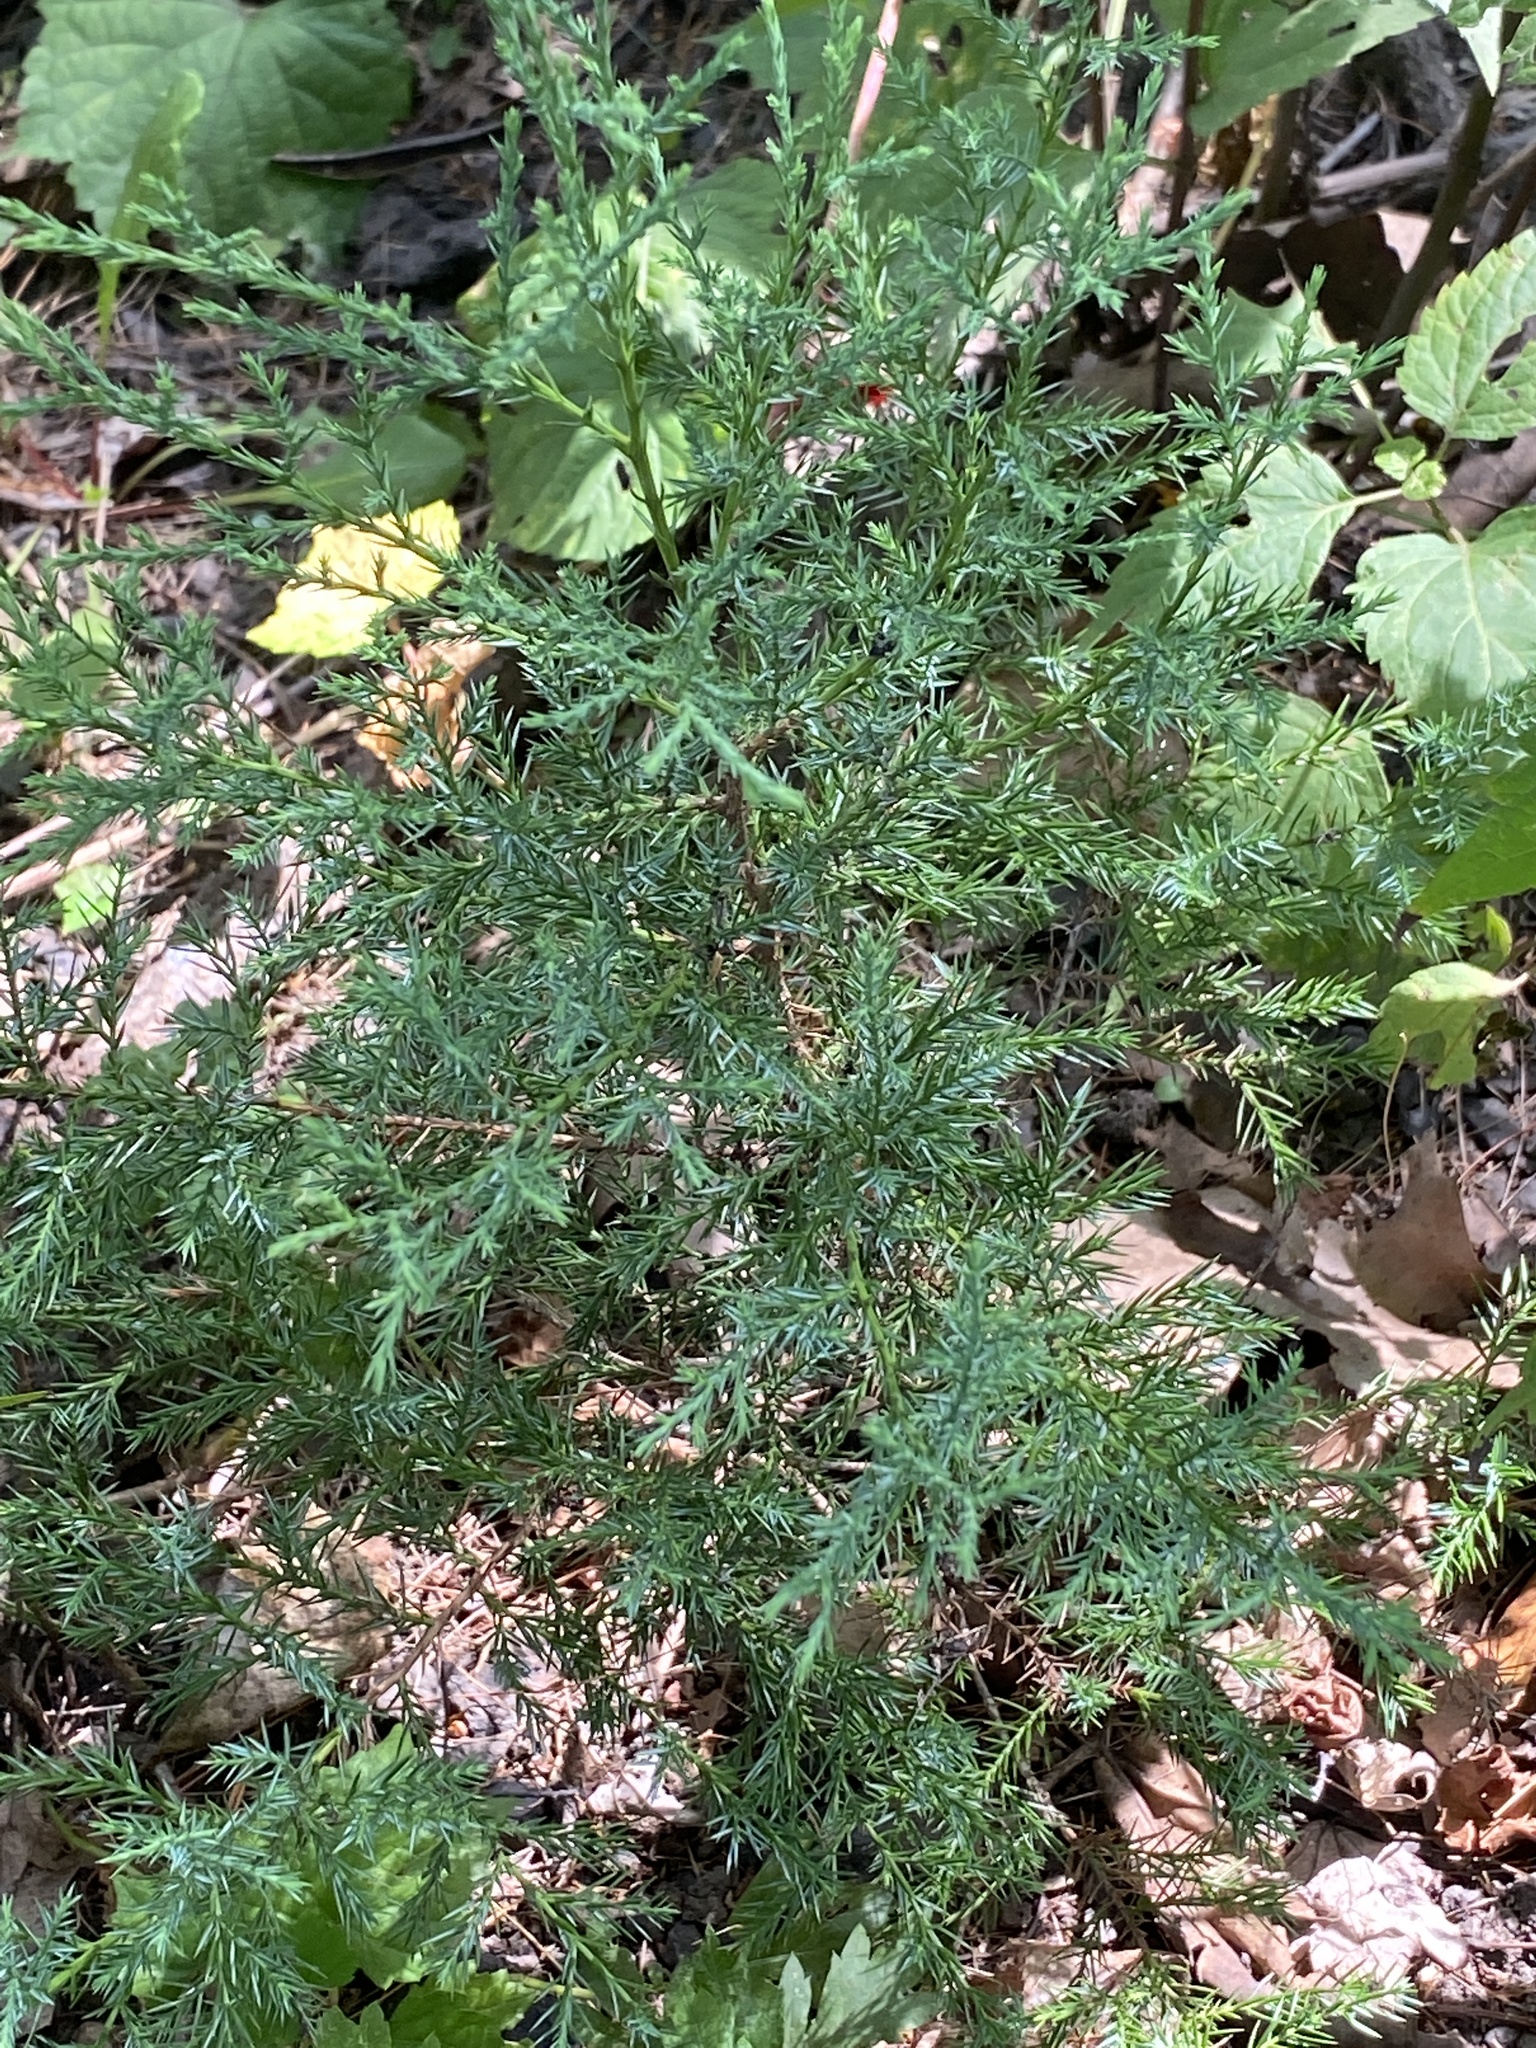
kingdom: Plantae
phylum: Tracheophyta
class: Pinopsida
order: Pinales
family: Cupressaceae
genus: Juniperus
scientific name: Juniperus virginiana
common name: Red juniper
